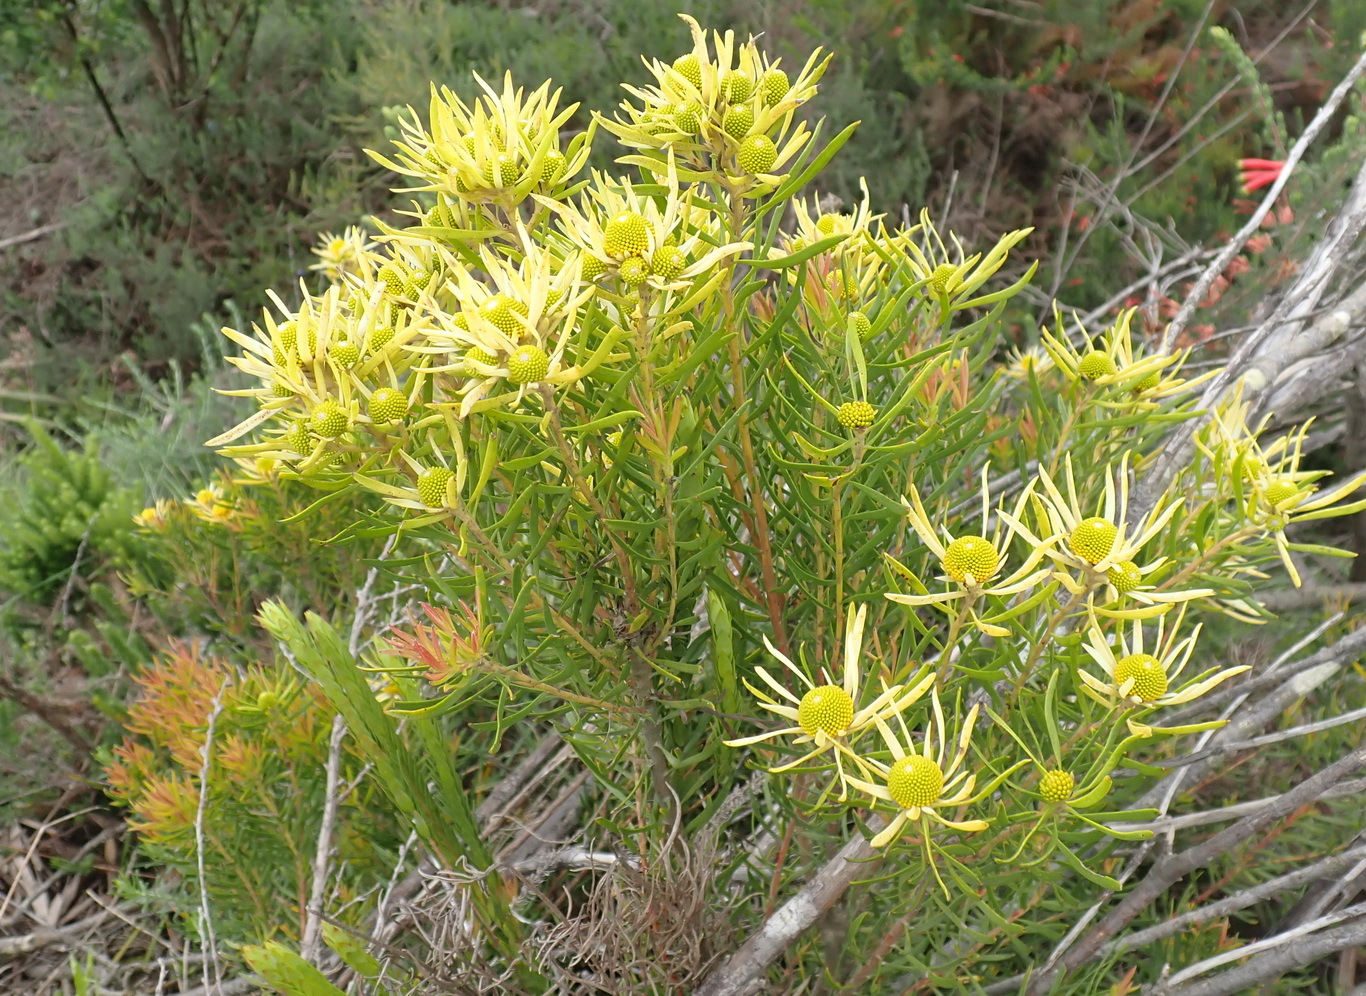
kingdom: Plantae
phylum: Tracheophyta
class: Magnoliopsida
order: Proteales
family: Proteaceae
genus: Leucadendron
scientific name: Leucadendron salignum
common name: Common sunshine conebush
